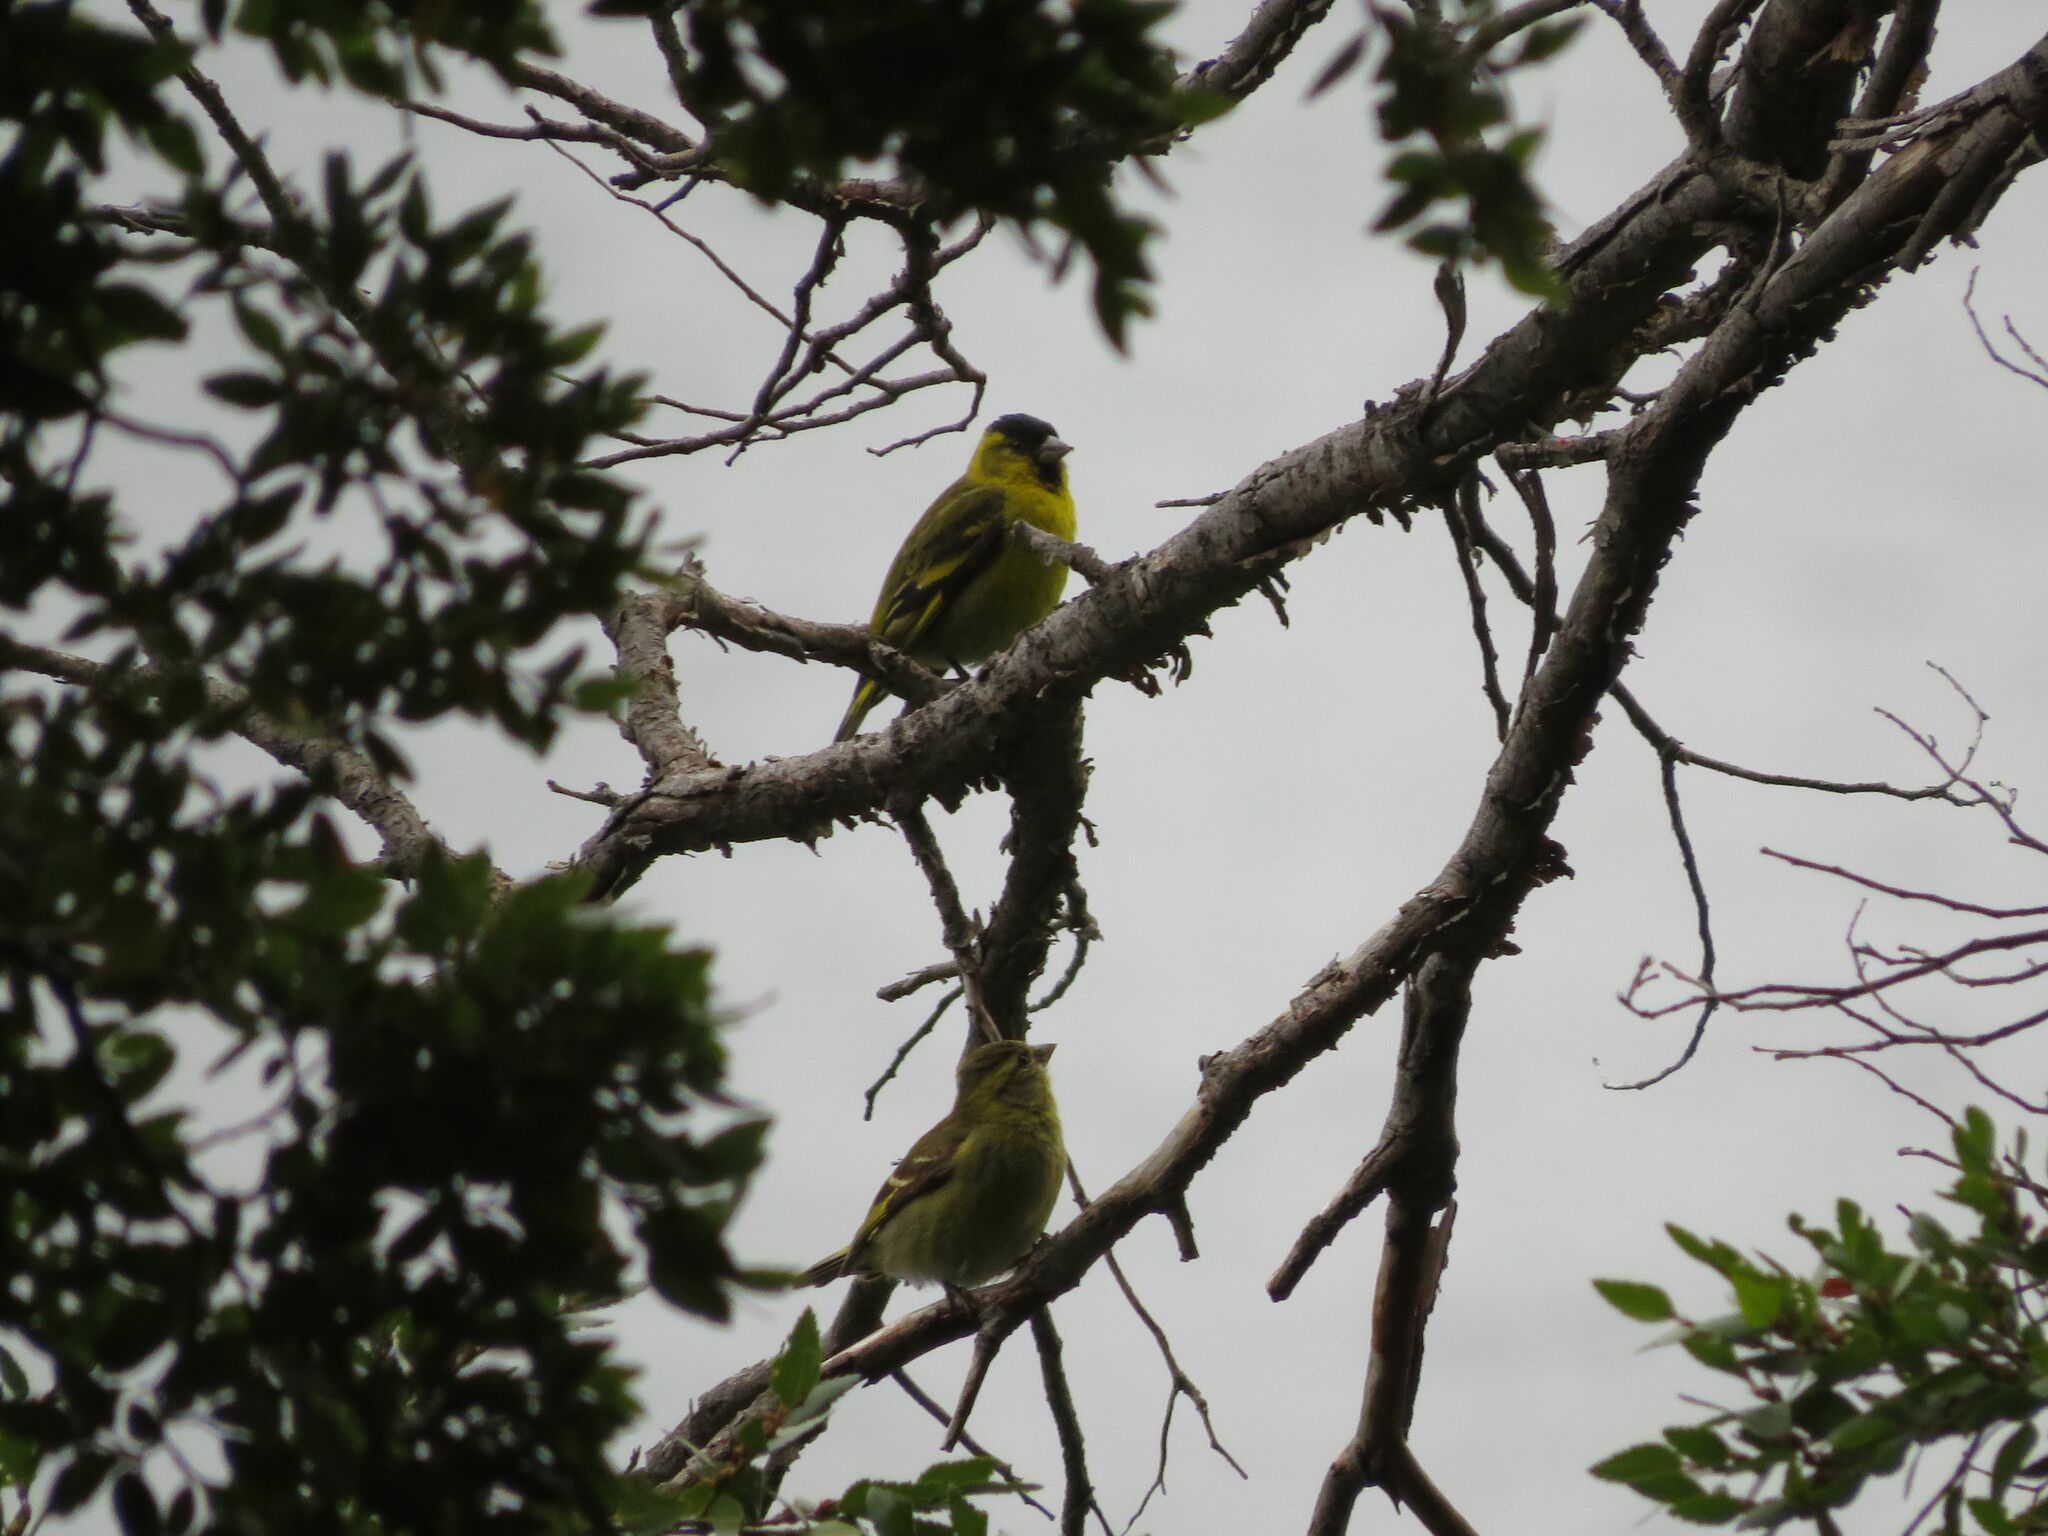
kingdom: Animalia
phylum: Chordata
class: Aves
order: Passeriformes
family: Fringillidae
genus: Spinus
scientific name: Spinus barbatus
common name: Black-chinned siskin
